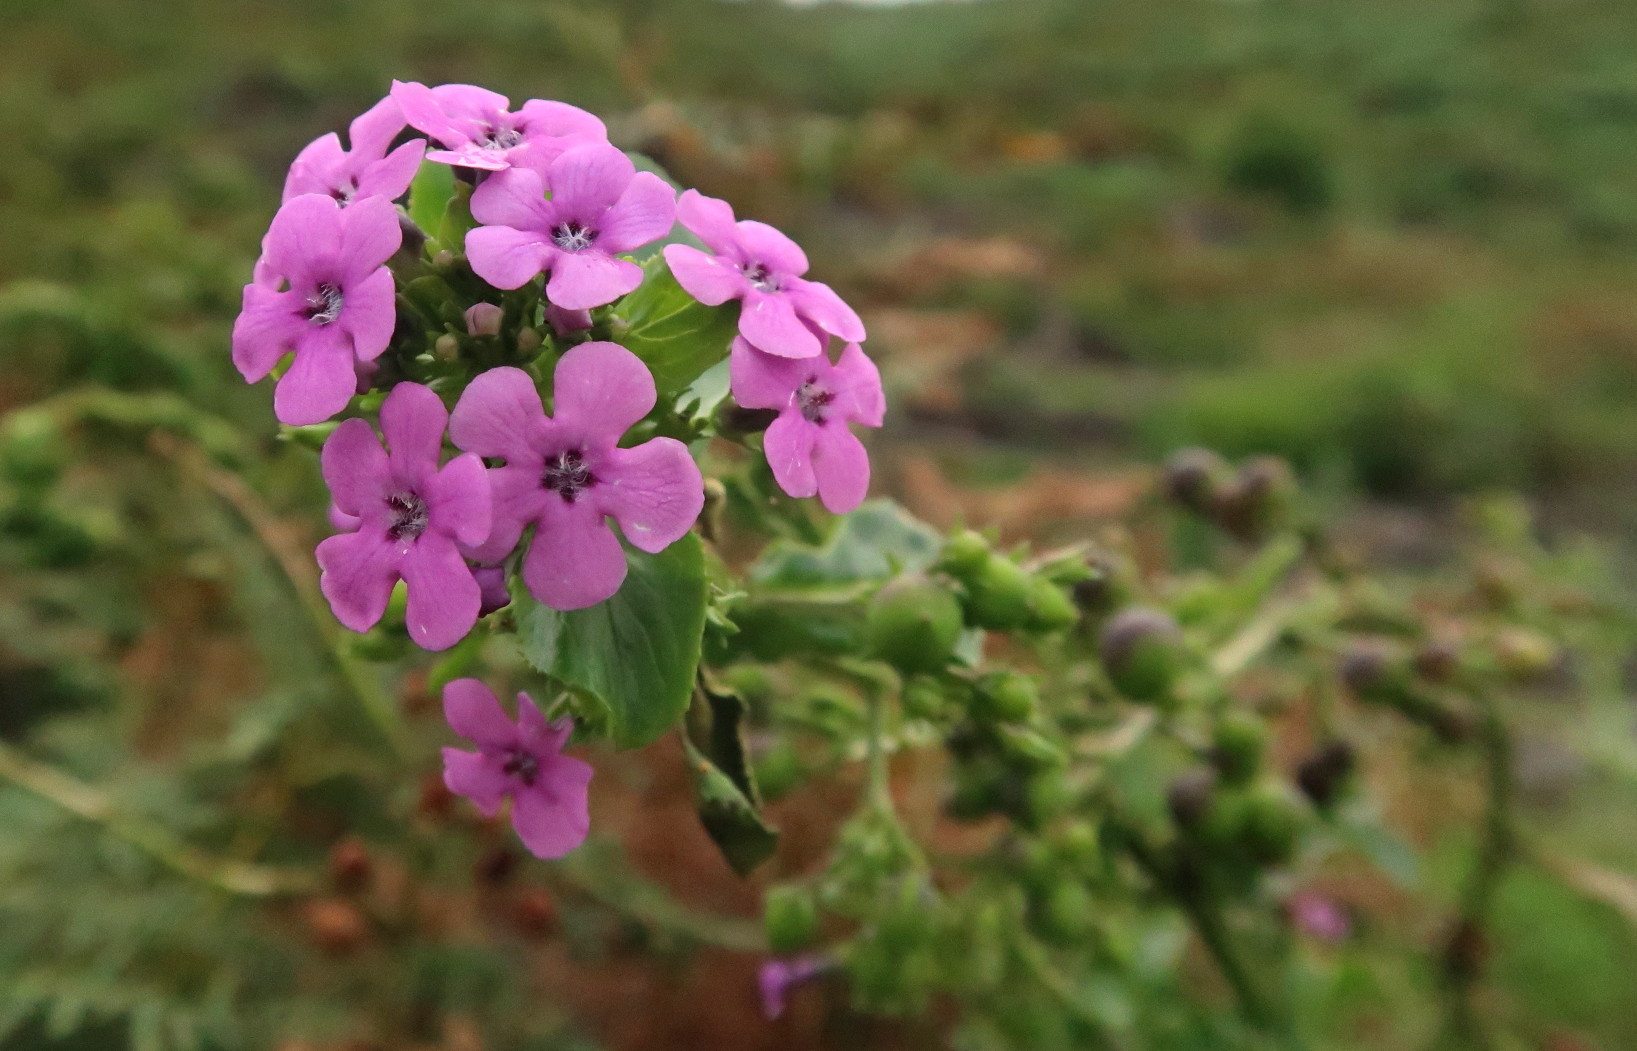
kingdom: Plantae
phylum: Tracheophyta
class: Magnoliopsida
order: Lamiales
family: Scrophulariaceae
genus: Teedia
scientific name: Teedia lucida
